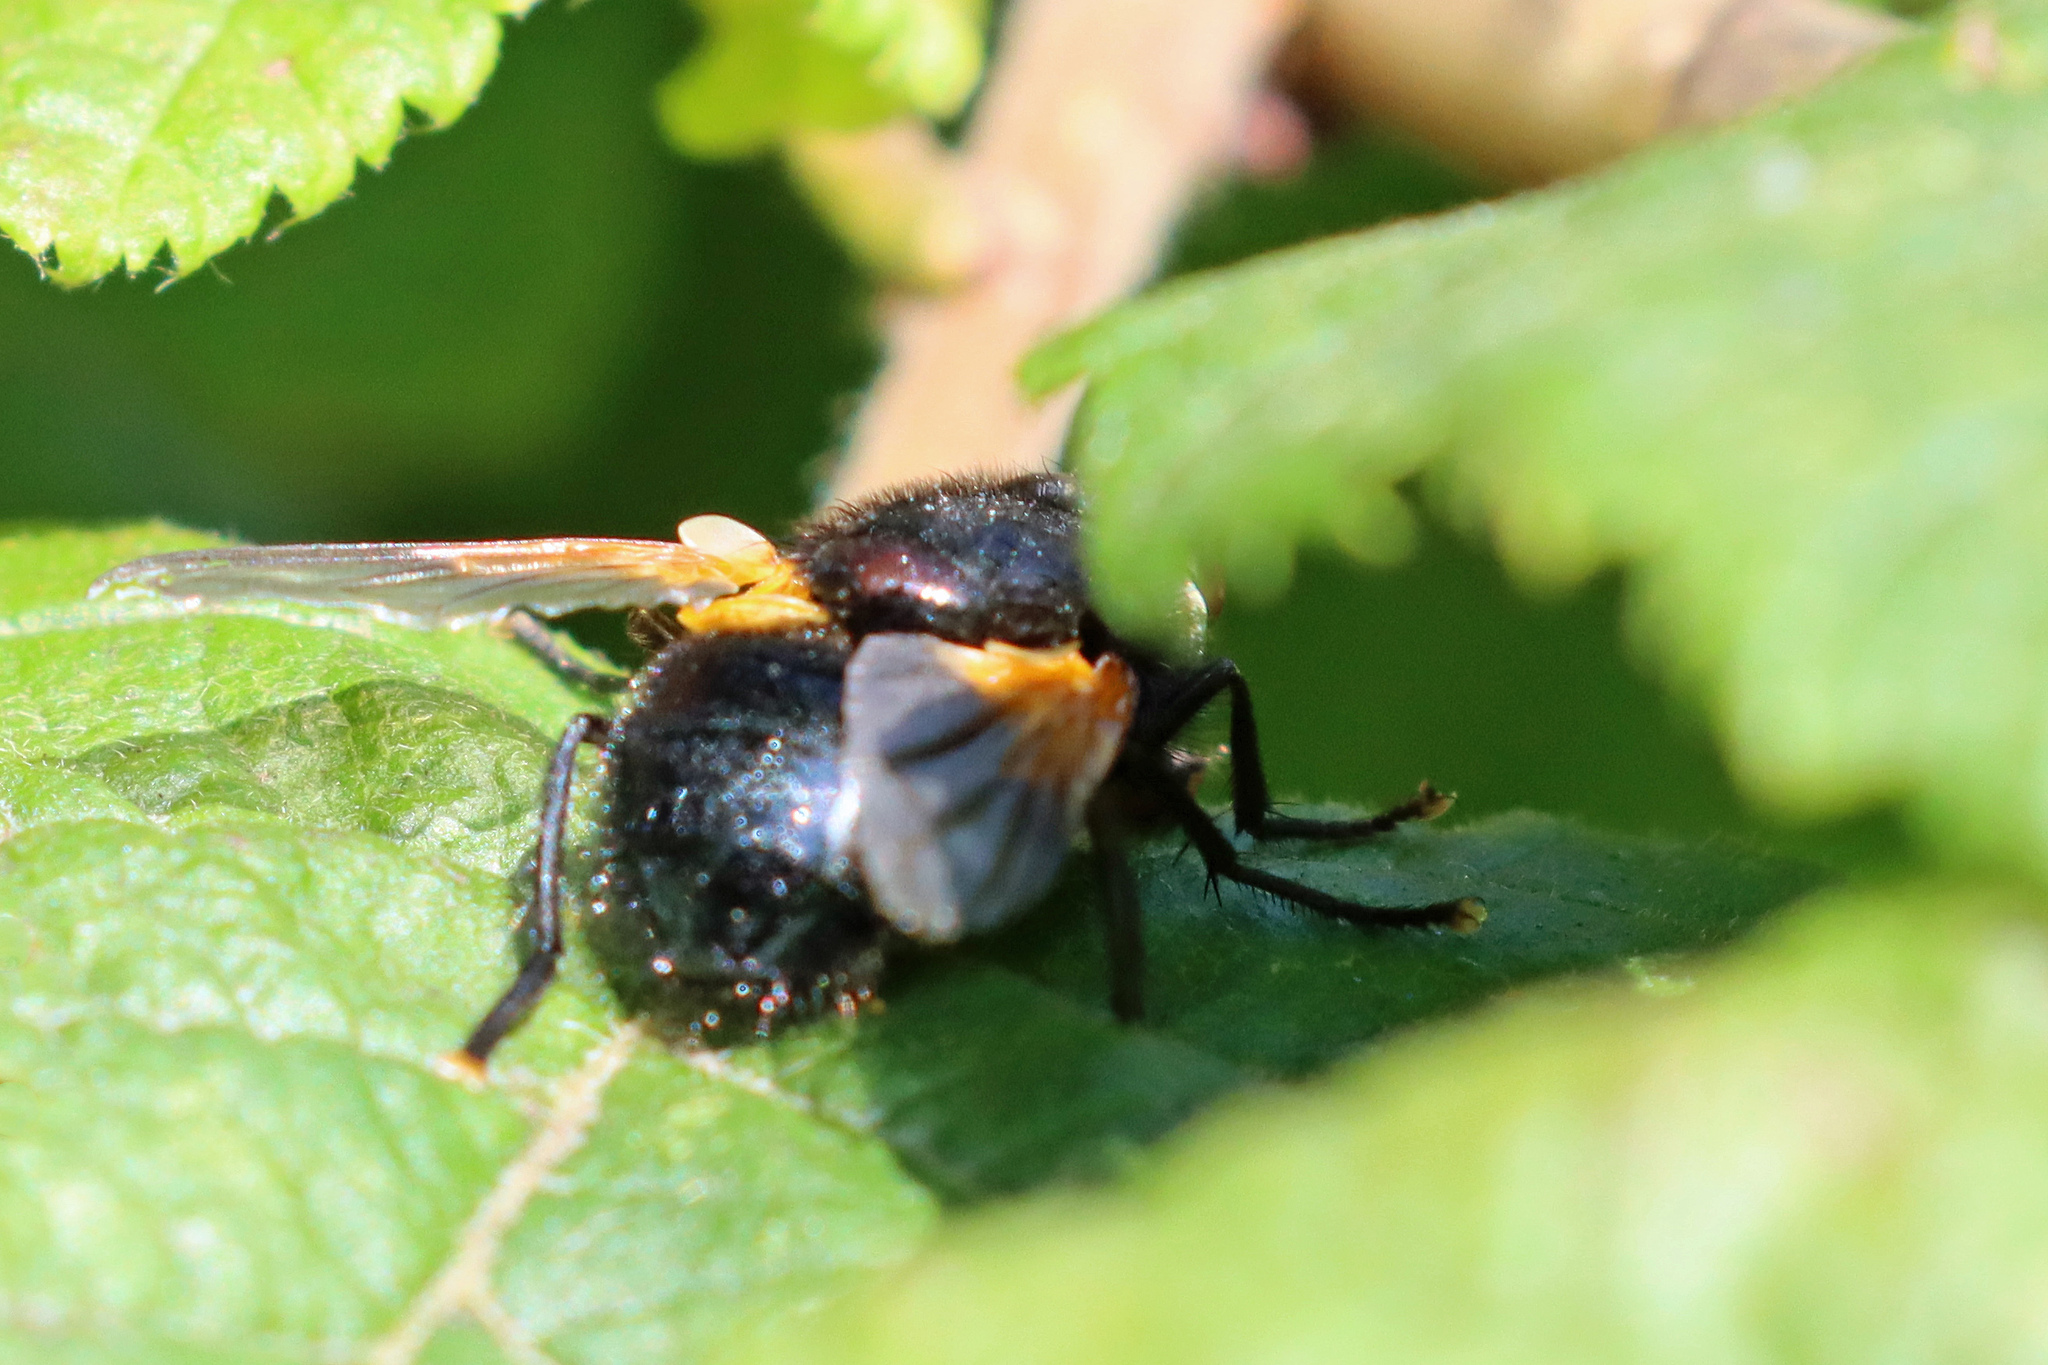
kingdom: Animalia
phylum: Arthropoda
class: Insecta
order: Diptera
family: Muscidae
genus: Mesembrina
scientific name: Mesembrina meridiana
